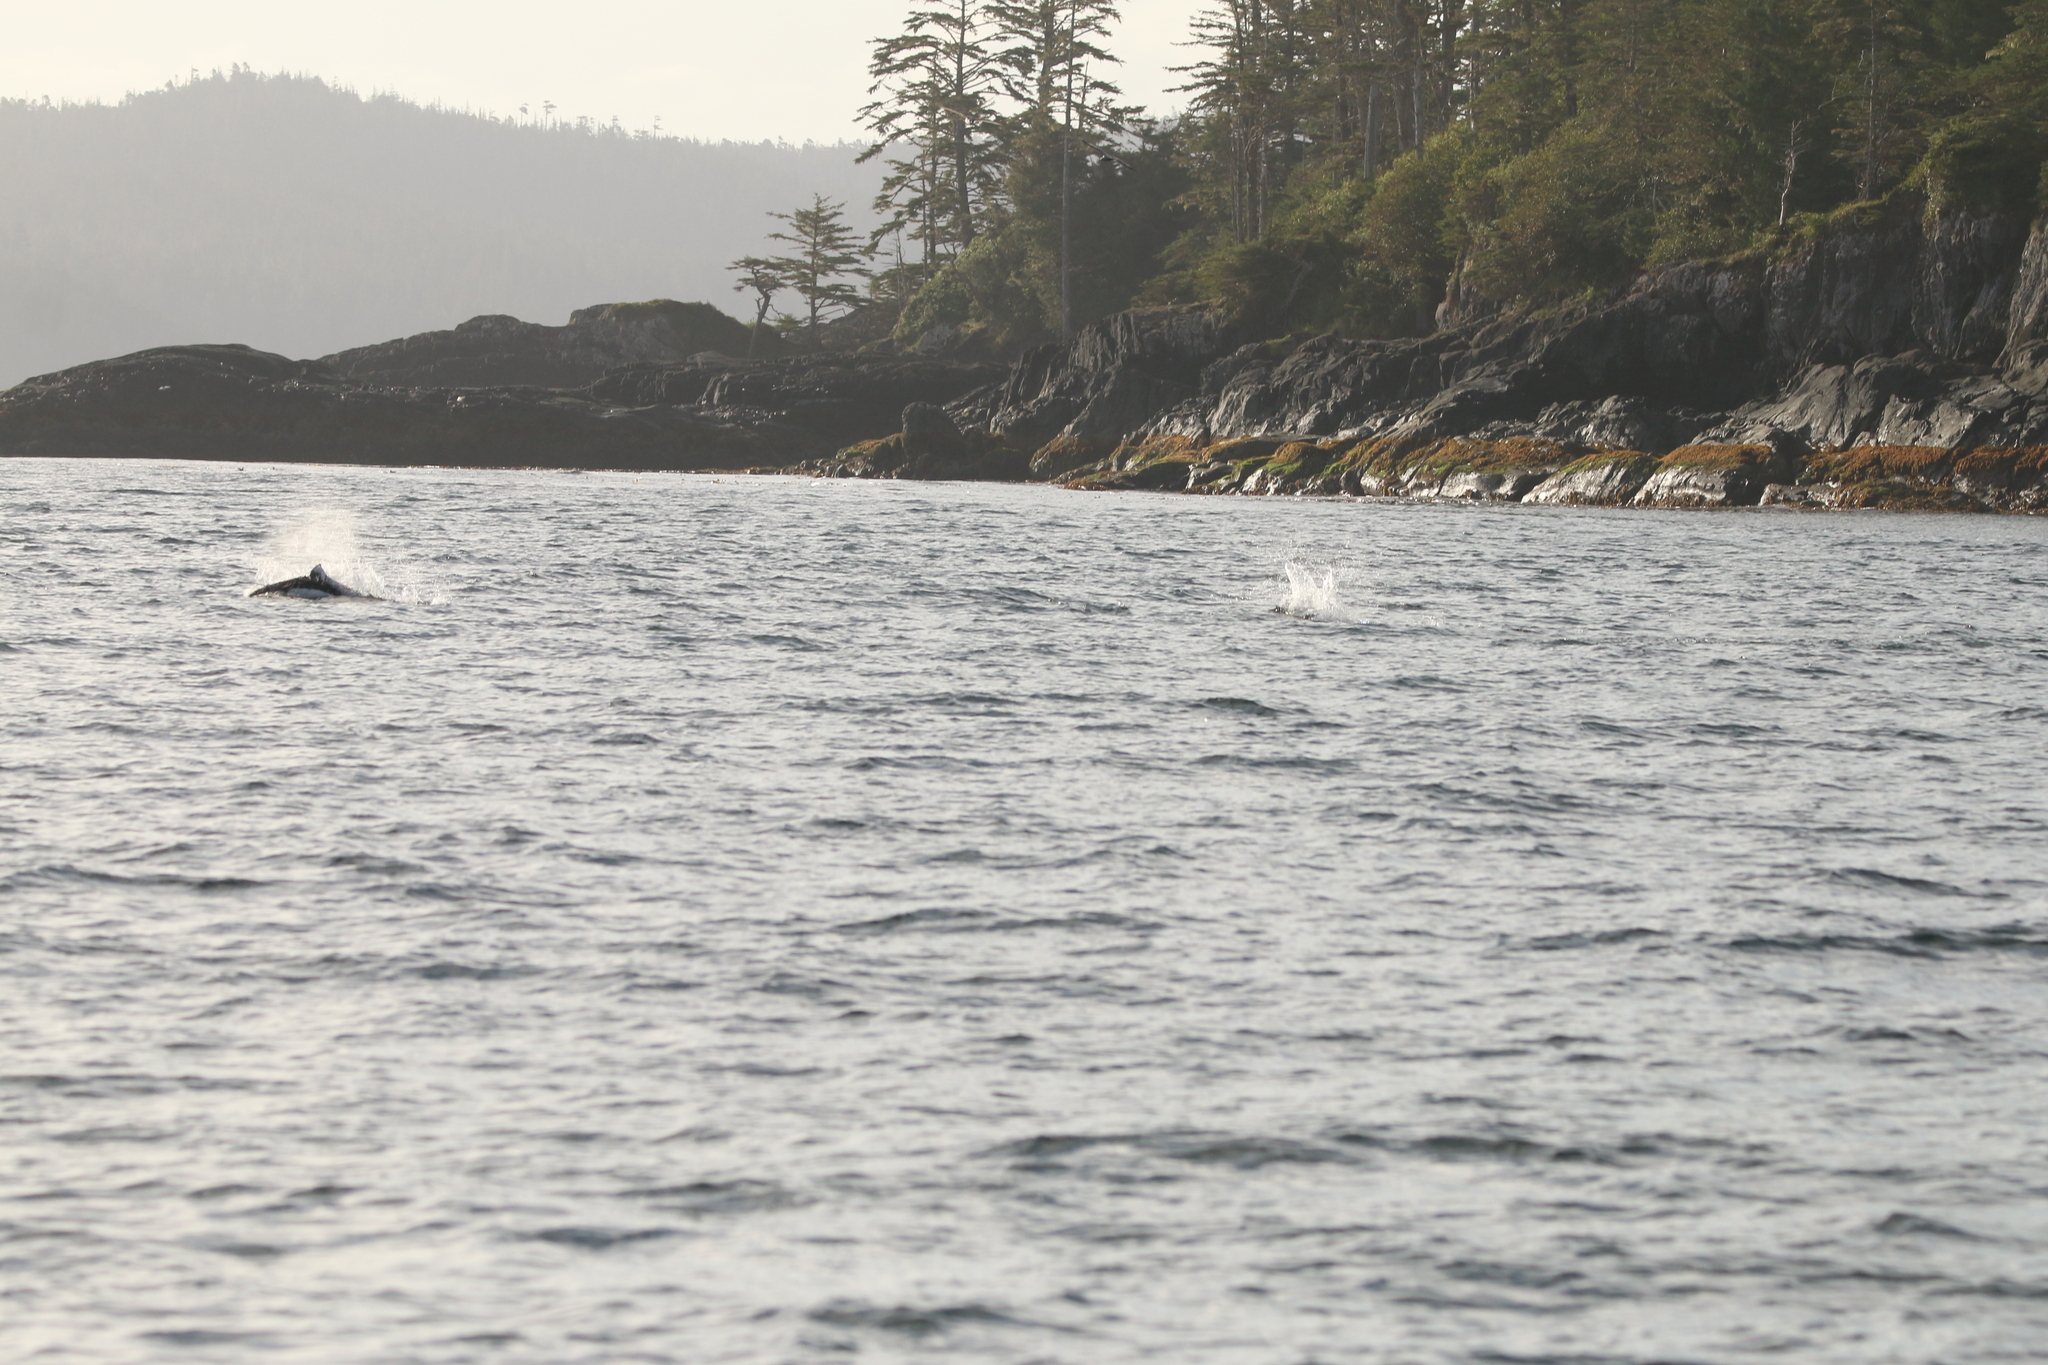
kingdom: Animalia
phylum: Chordata
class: Mammalia
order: Cetacea
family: Phocoenidae
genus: Phocoenoides
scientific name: Phocoenoides dalli
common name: Dall's porpoise
